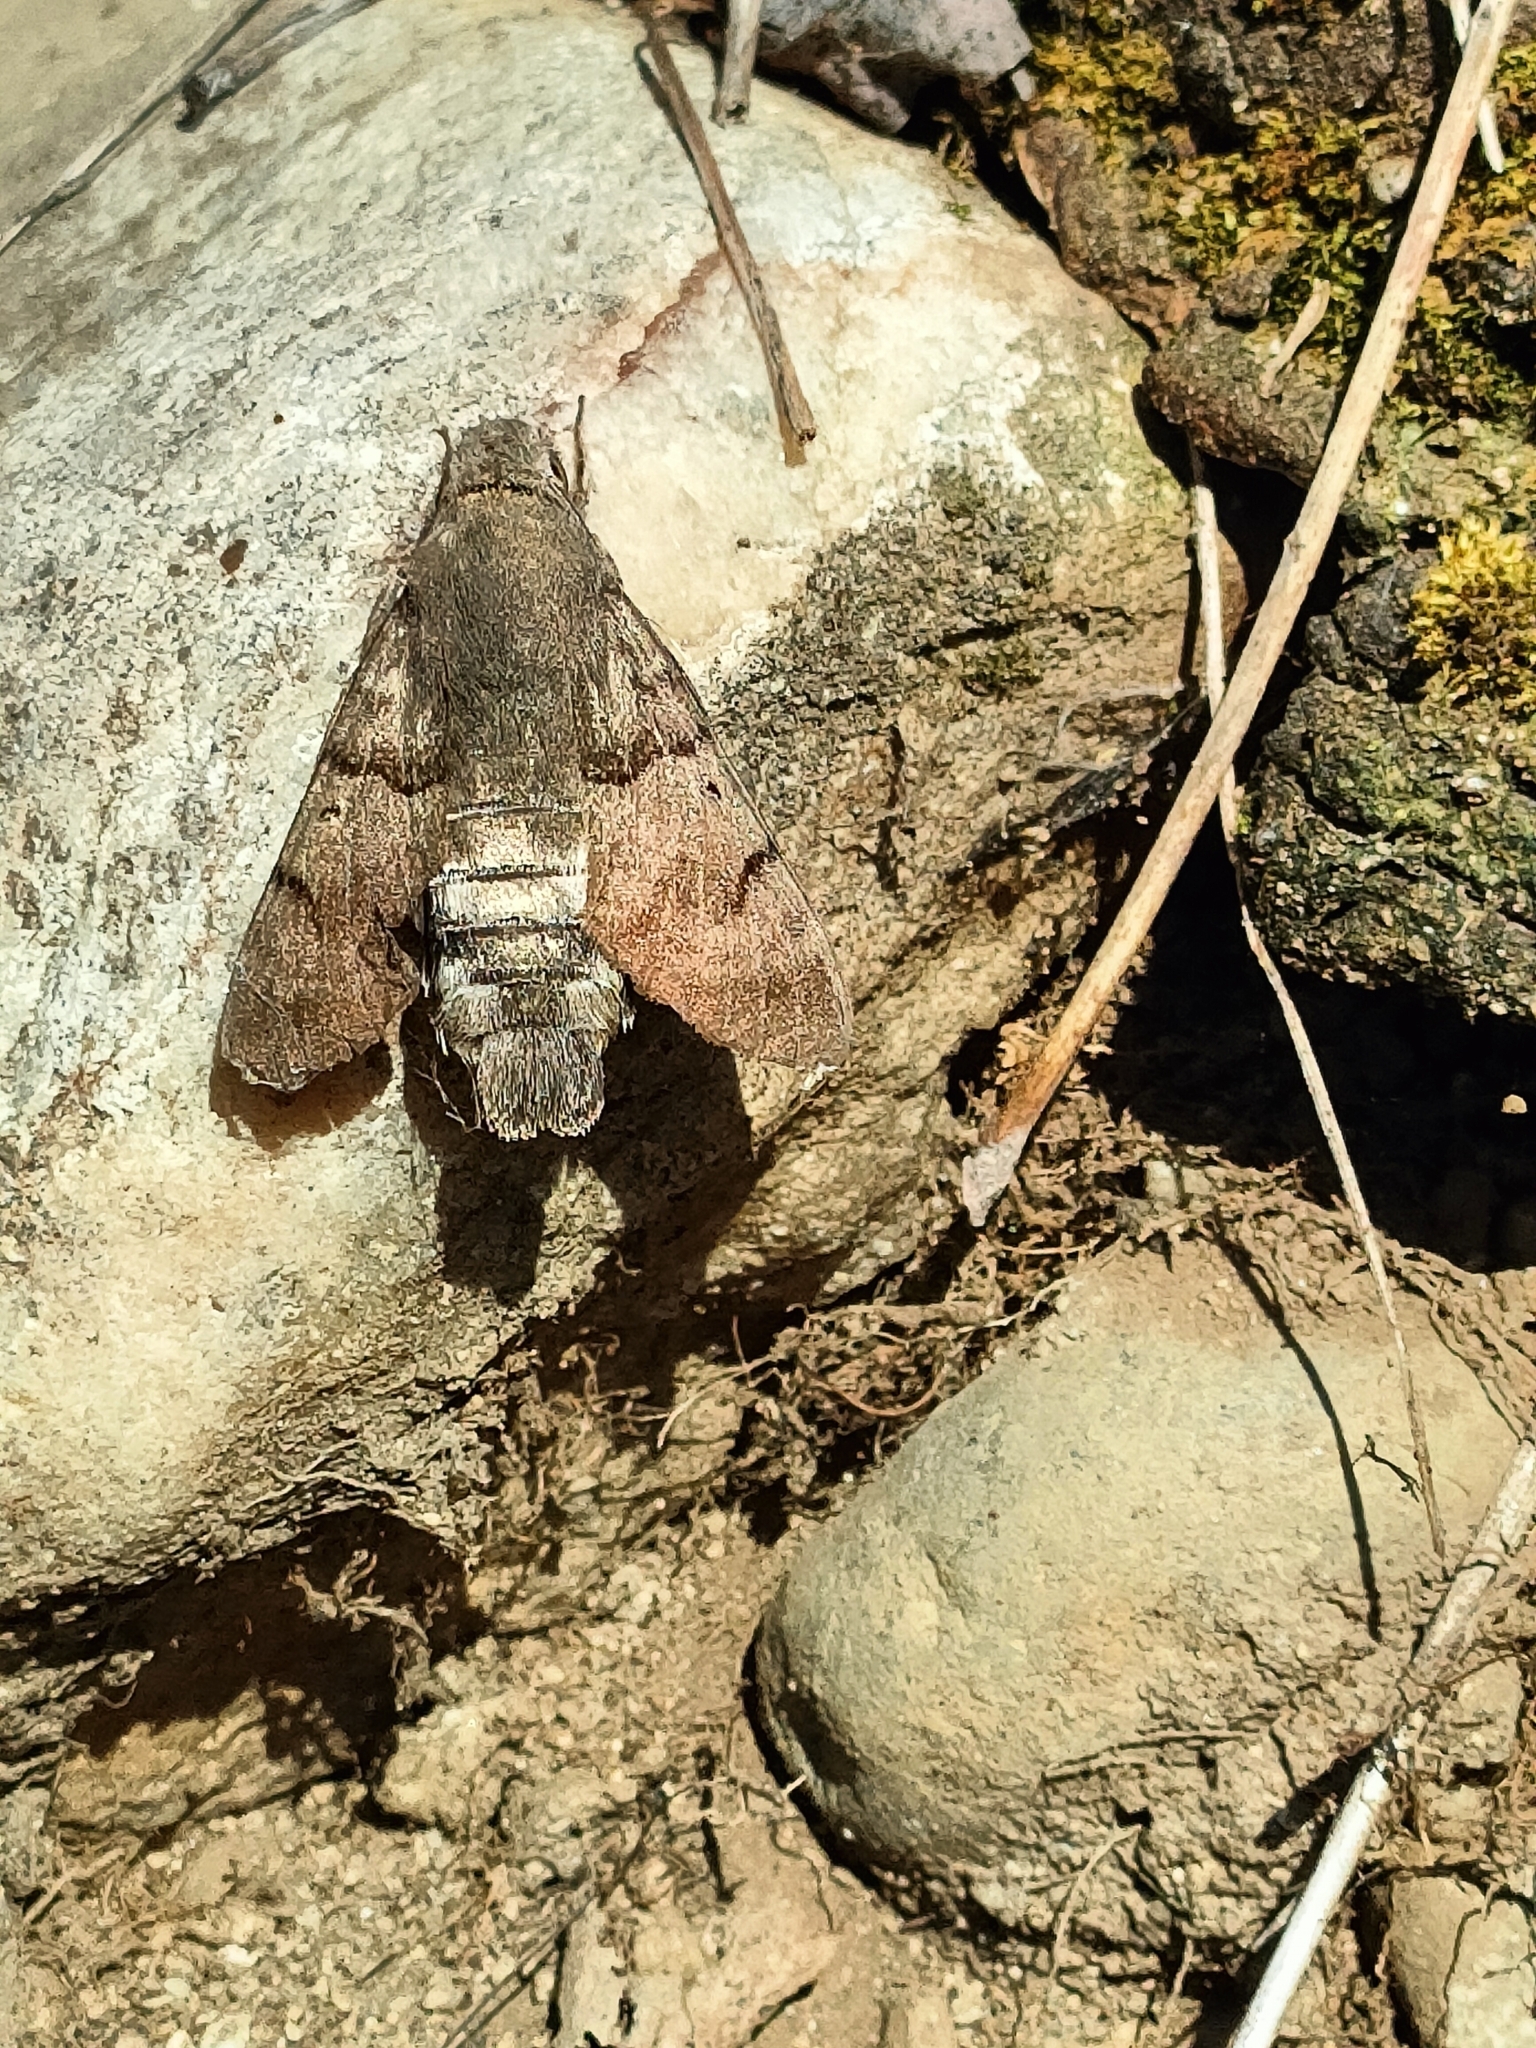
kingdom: Animalia
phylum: Arthropoda
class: Insecta
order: Lepidoptera
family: Sphingidae
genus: Macroglossum
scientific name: Macroglossum stellatarum
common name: Humming-bird hawk-moth
